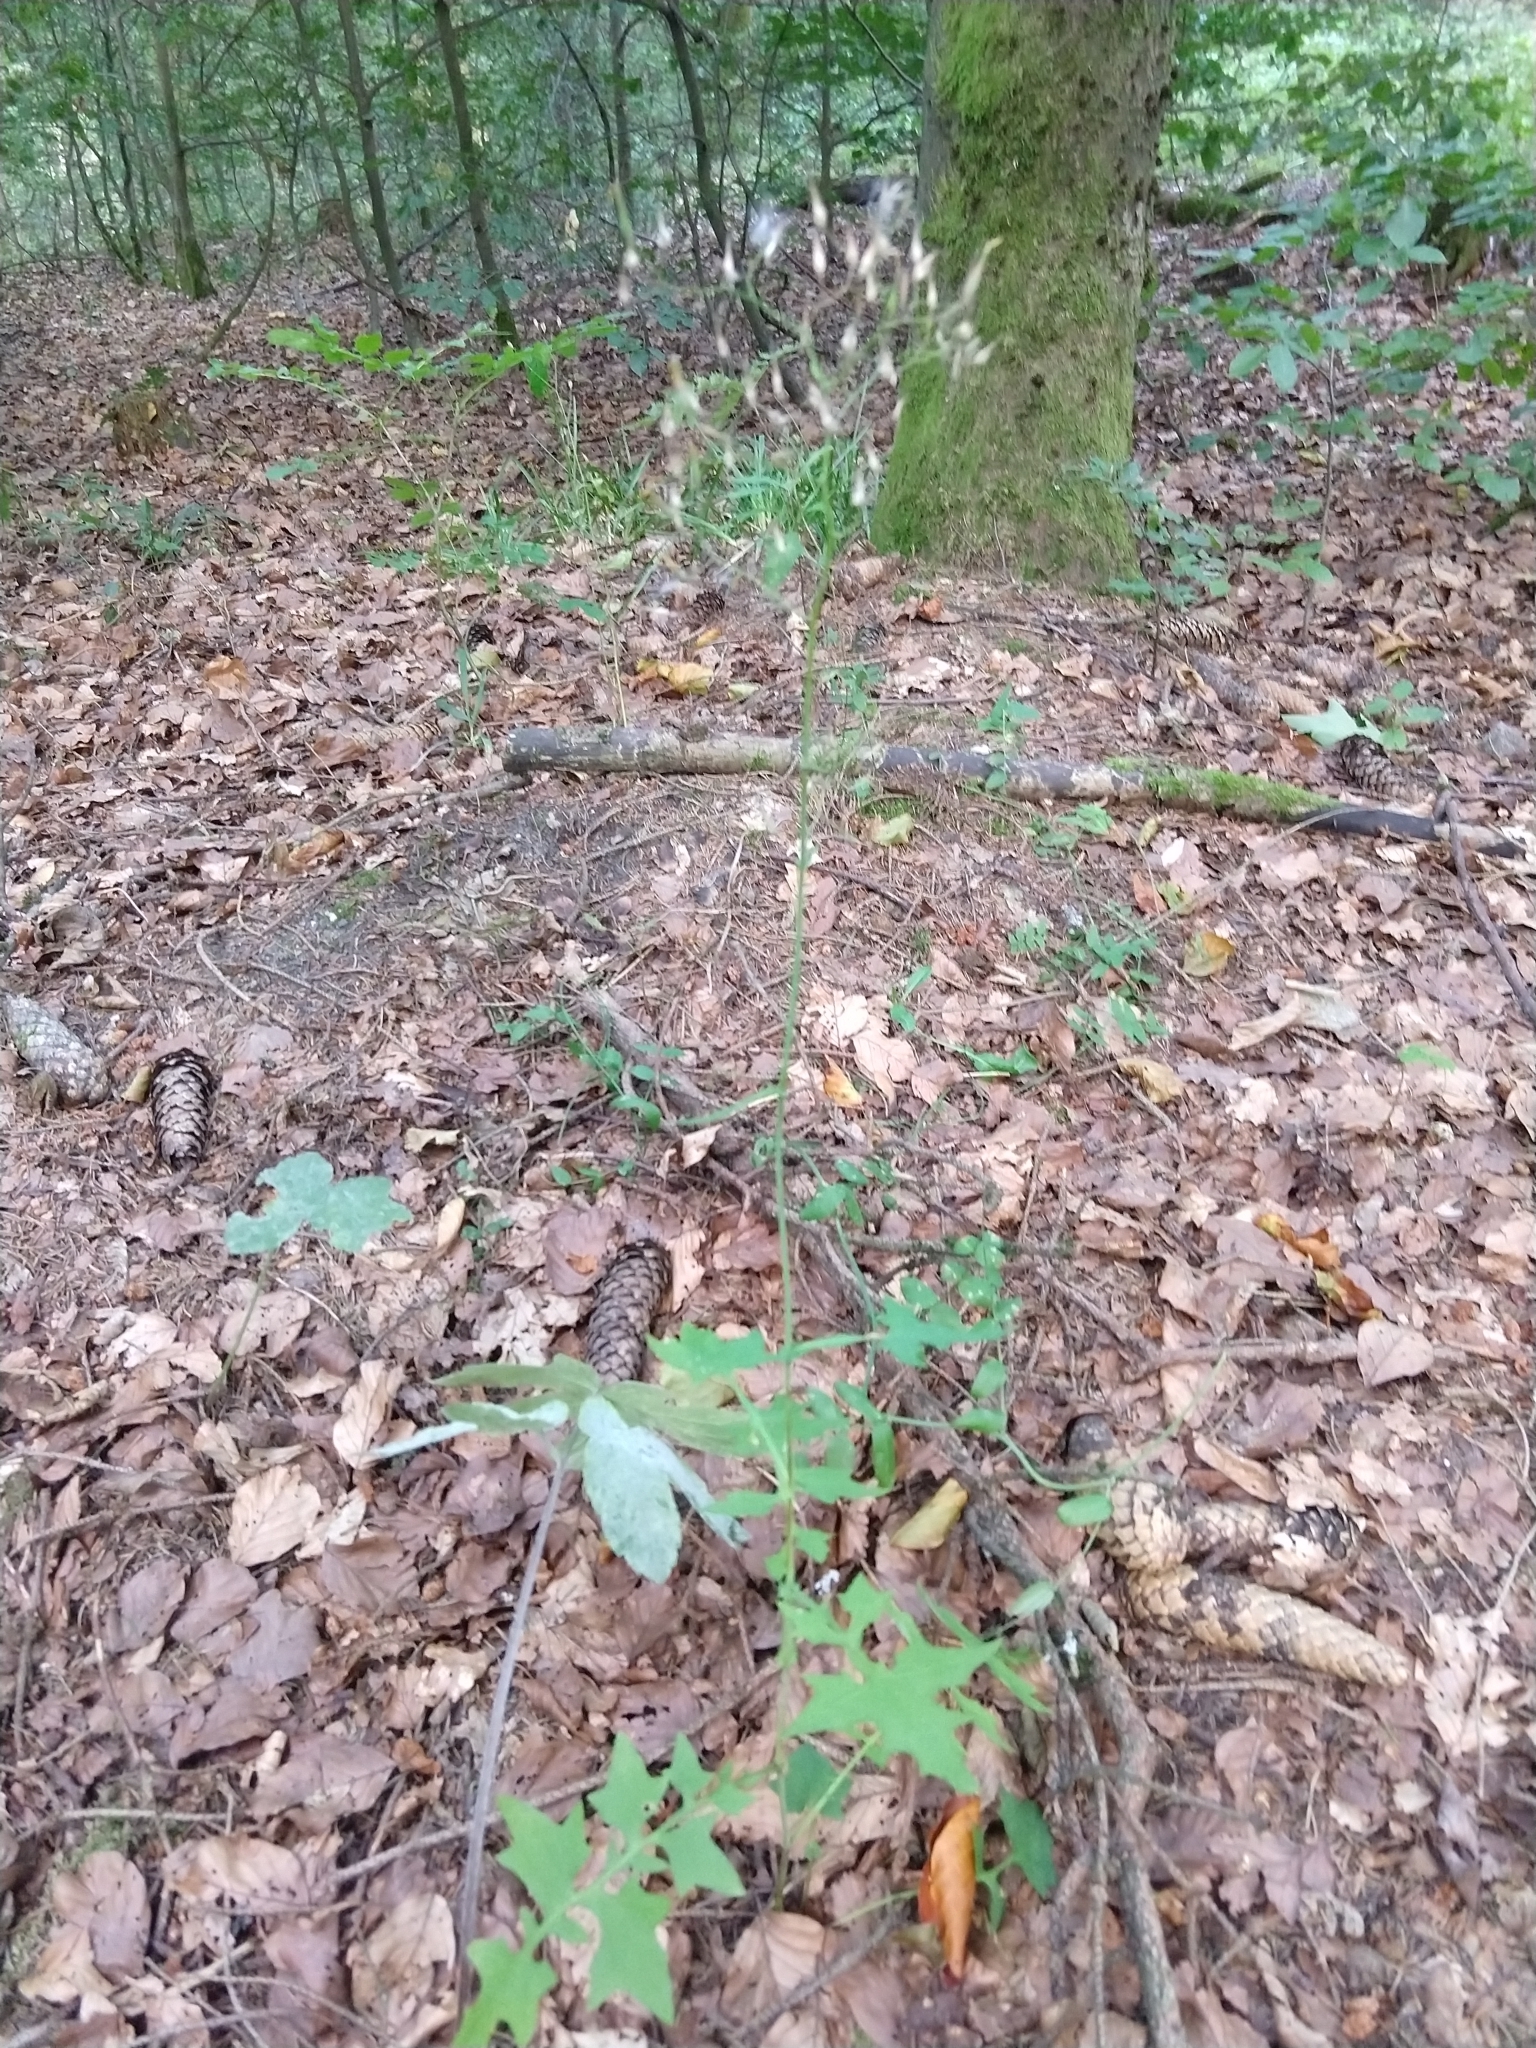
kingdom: Plantae
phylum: Tracheophyta
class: Magnoliopsida
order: Asterales
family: Asteraceae
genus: Mycelis
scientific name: Mycelis muralis
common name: Wall lettuce
